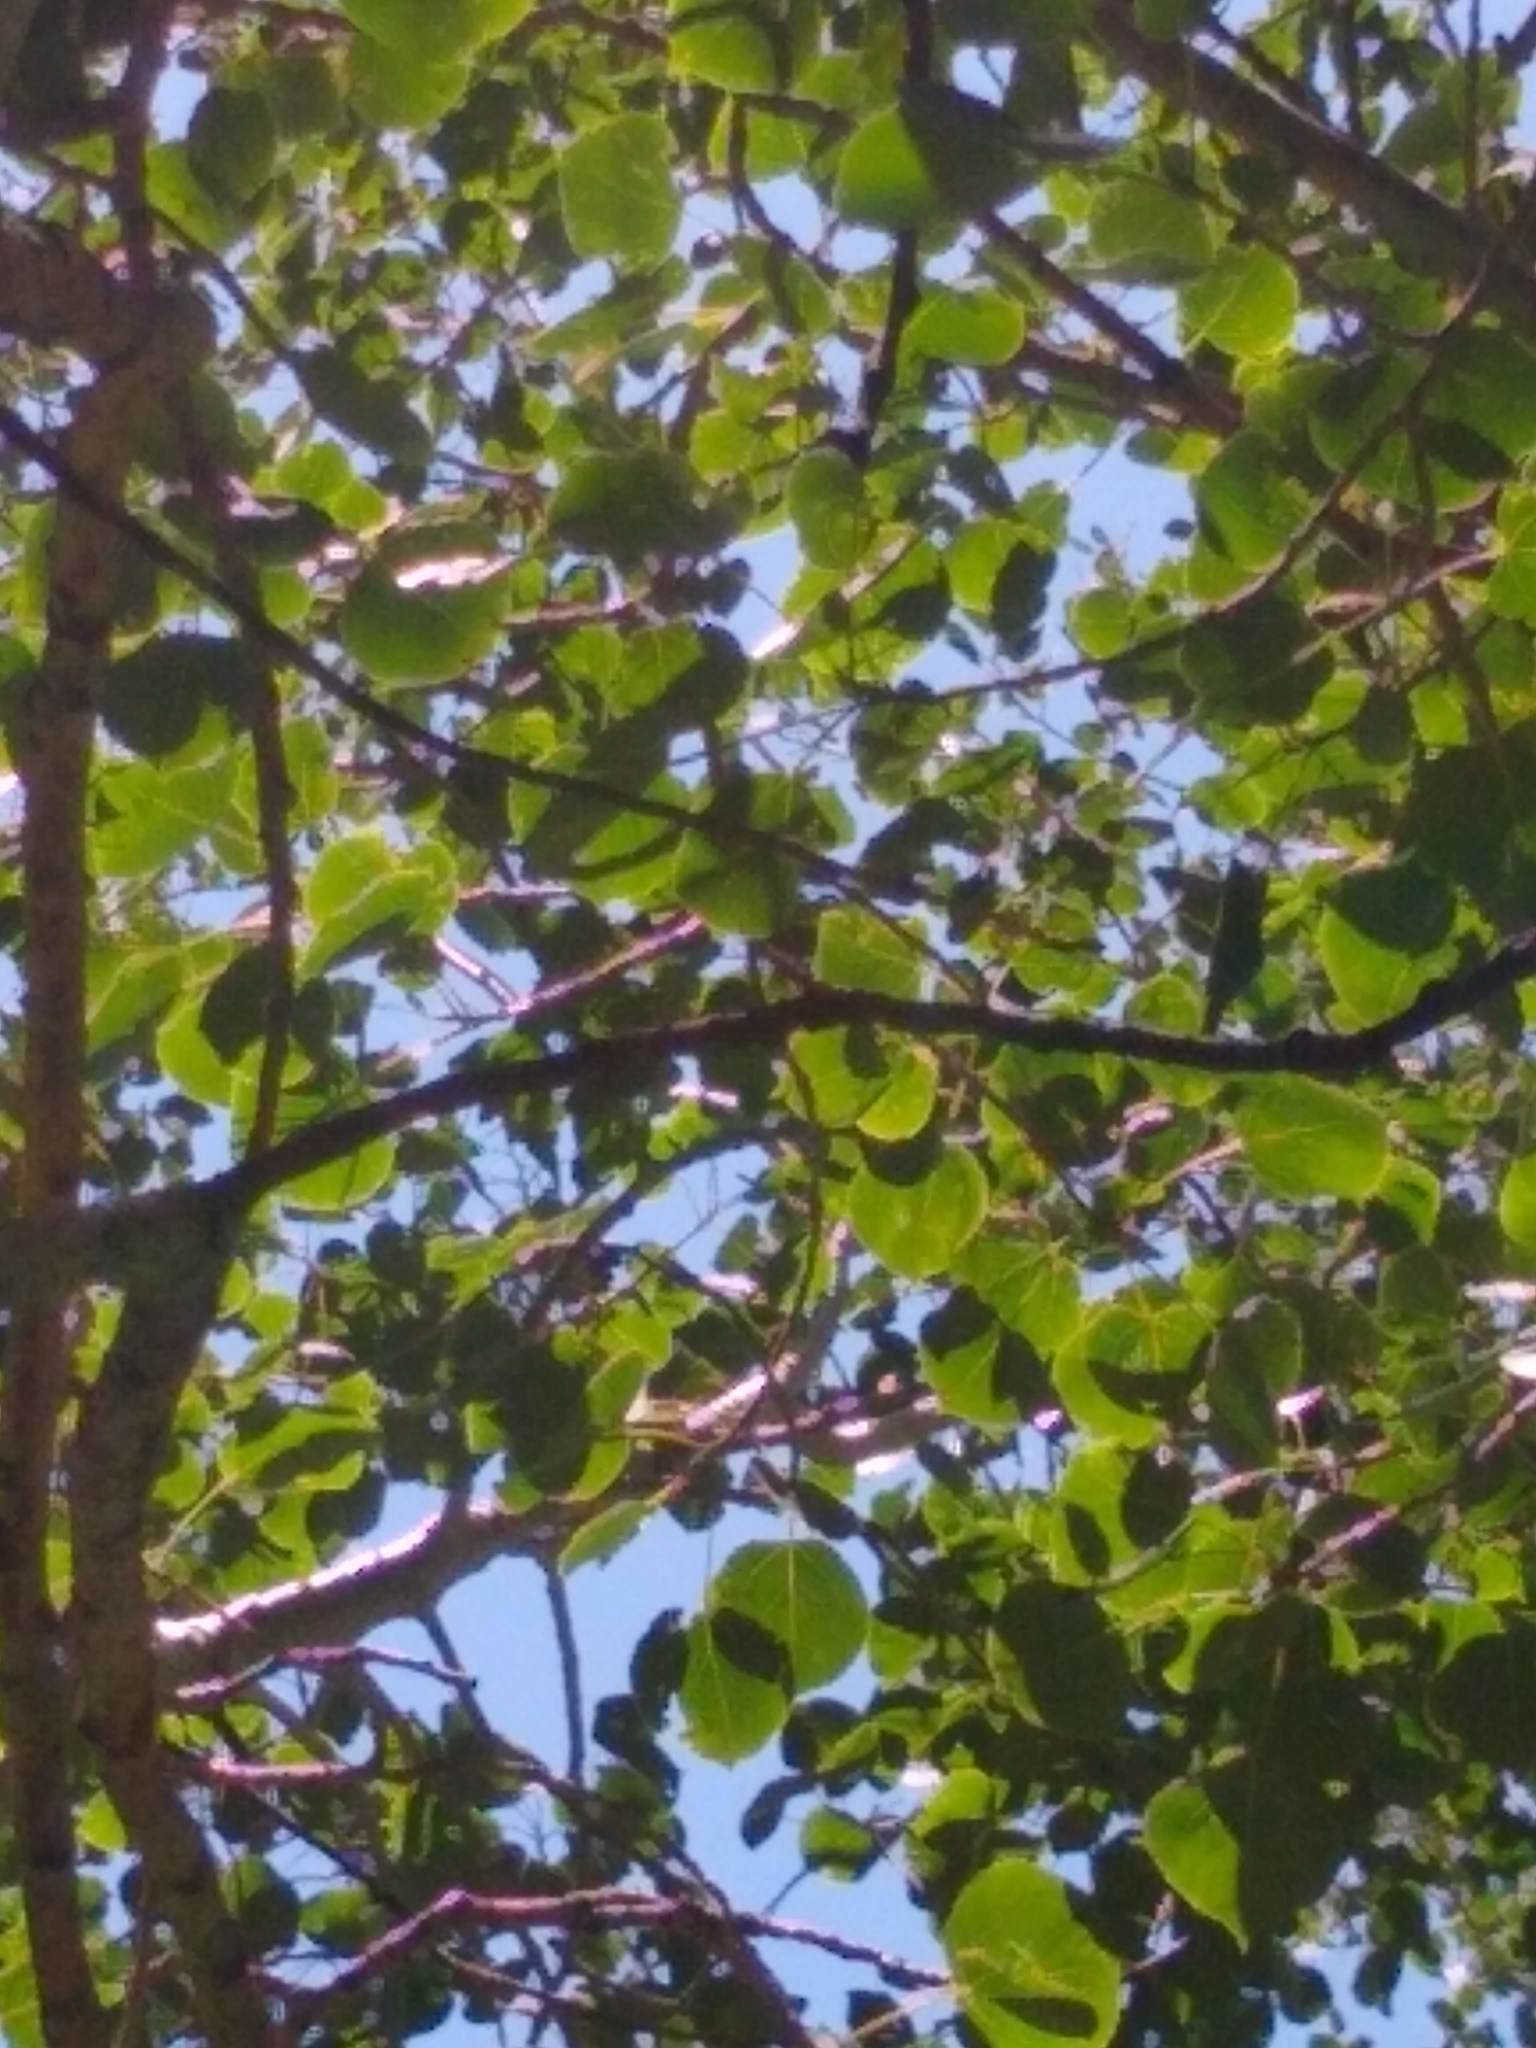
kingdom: Plantae
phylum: Tracheophyta
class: Magnoliopsida
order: Malpighiales
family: Salicaceae
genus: Populus
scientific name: Populus tremuloides
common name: Quaking aspen
